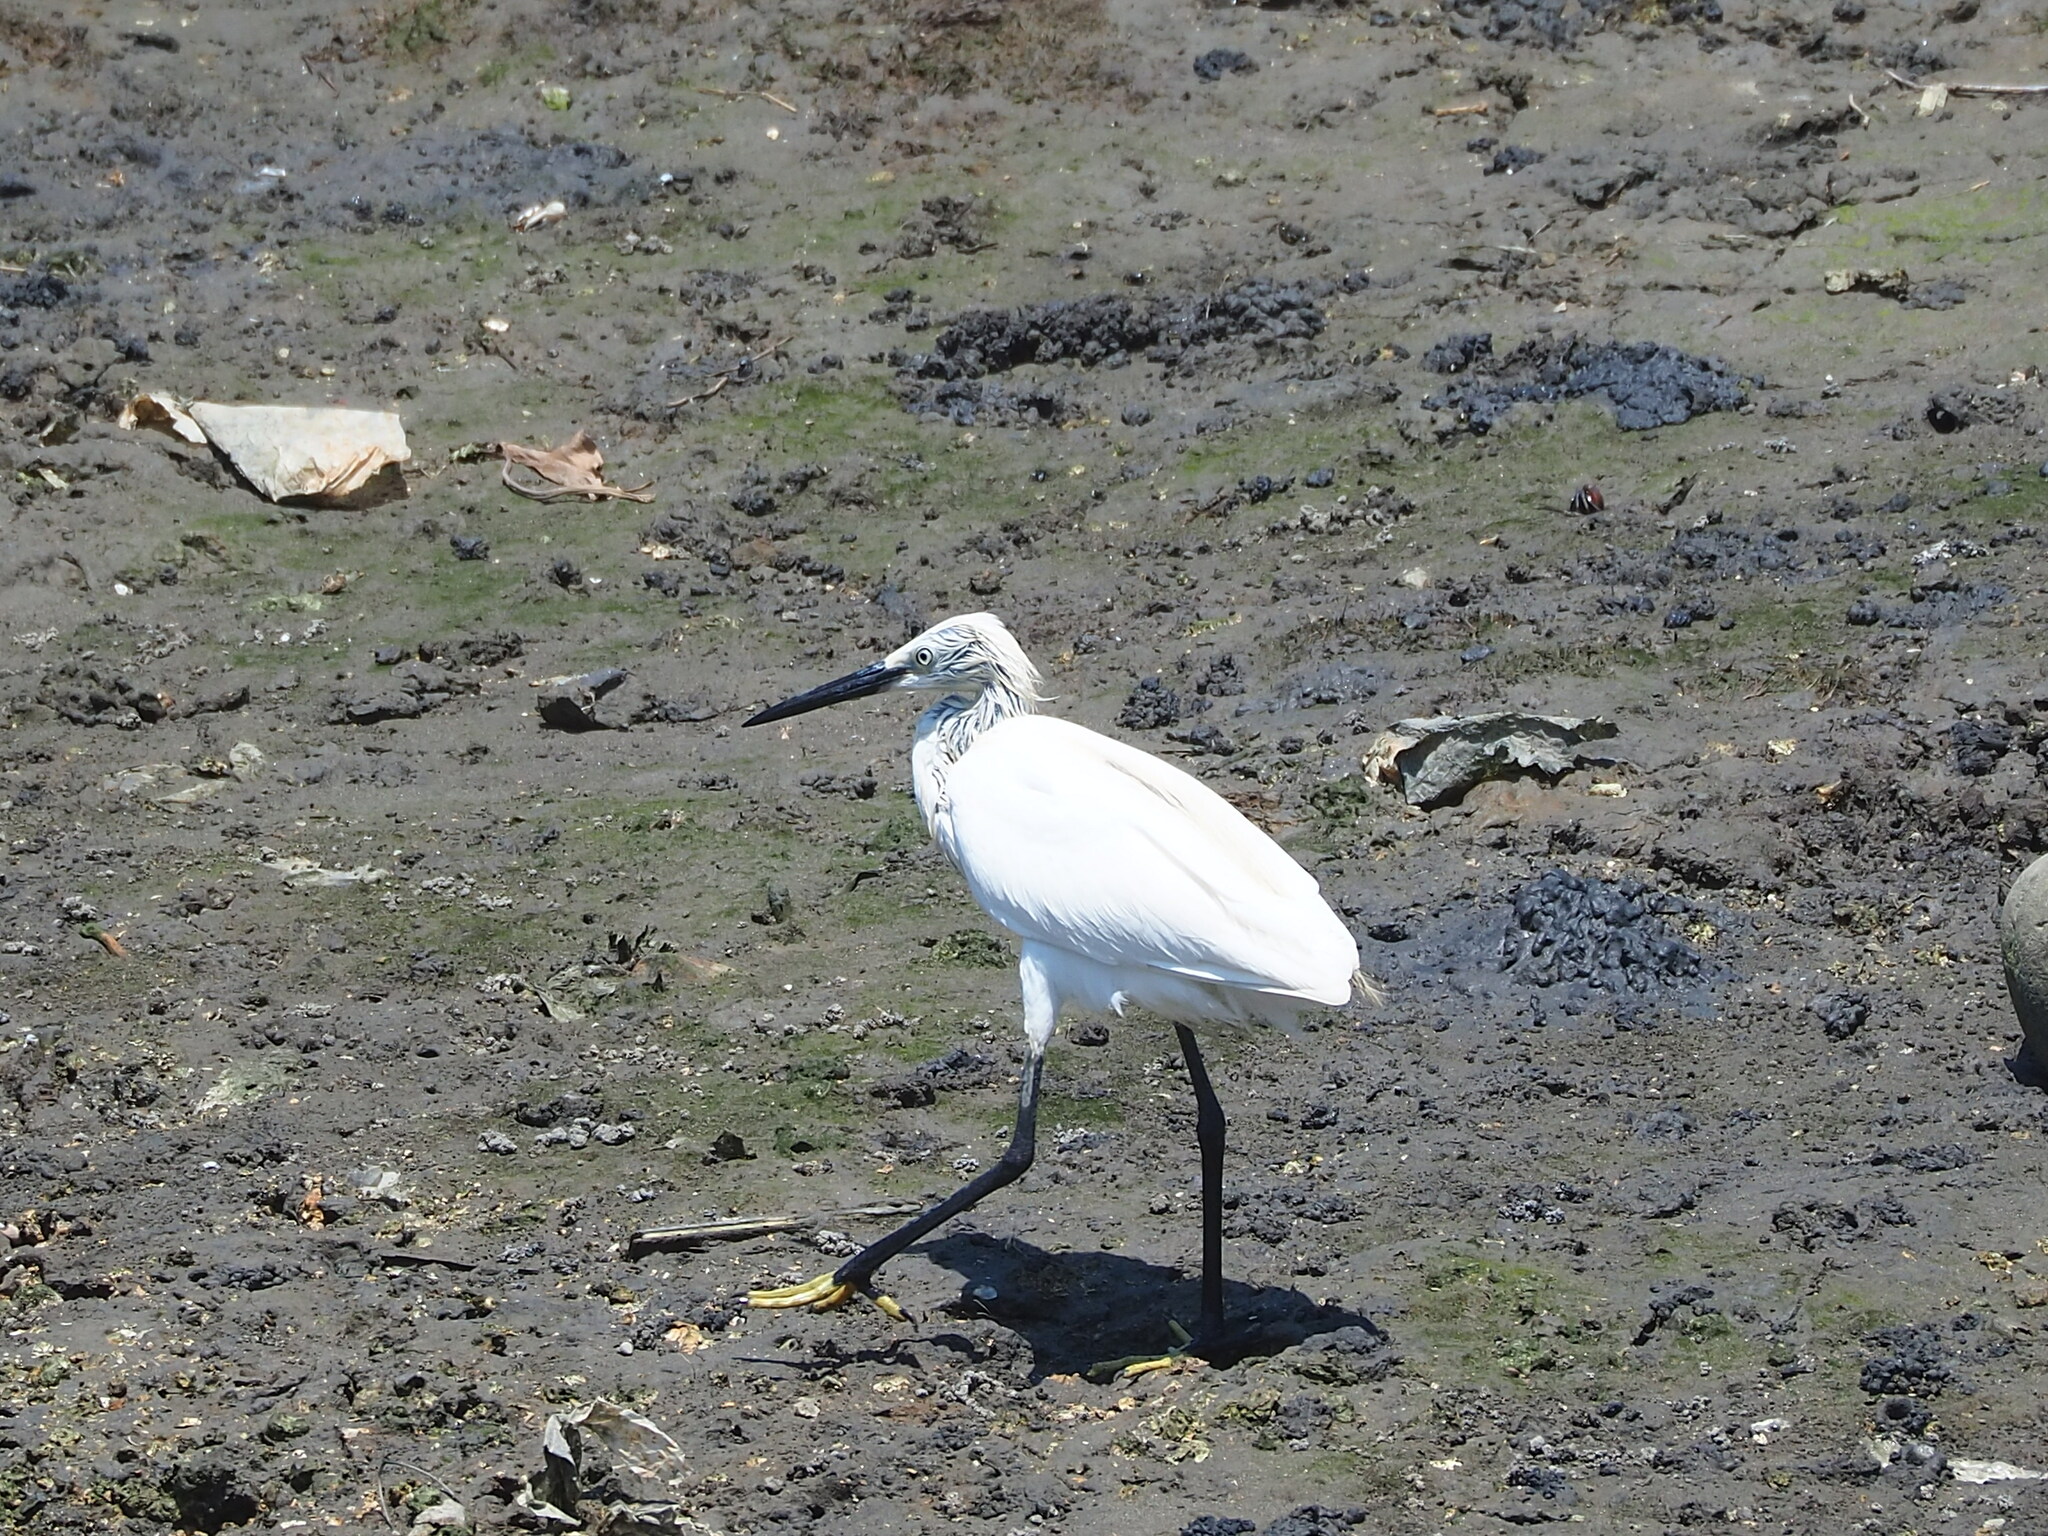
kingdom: Animalia
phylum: Chordata
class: Aves
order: Pelecaniformes
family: Ardeidae
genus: Egretta
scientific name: Egretta garzetta
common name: Little egret
